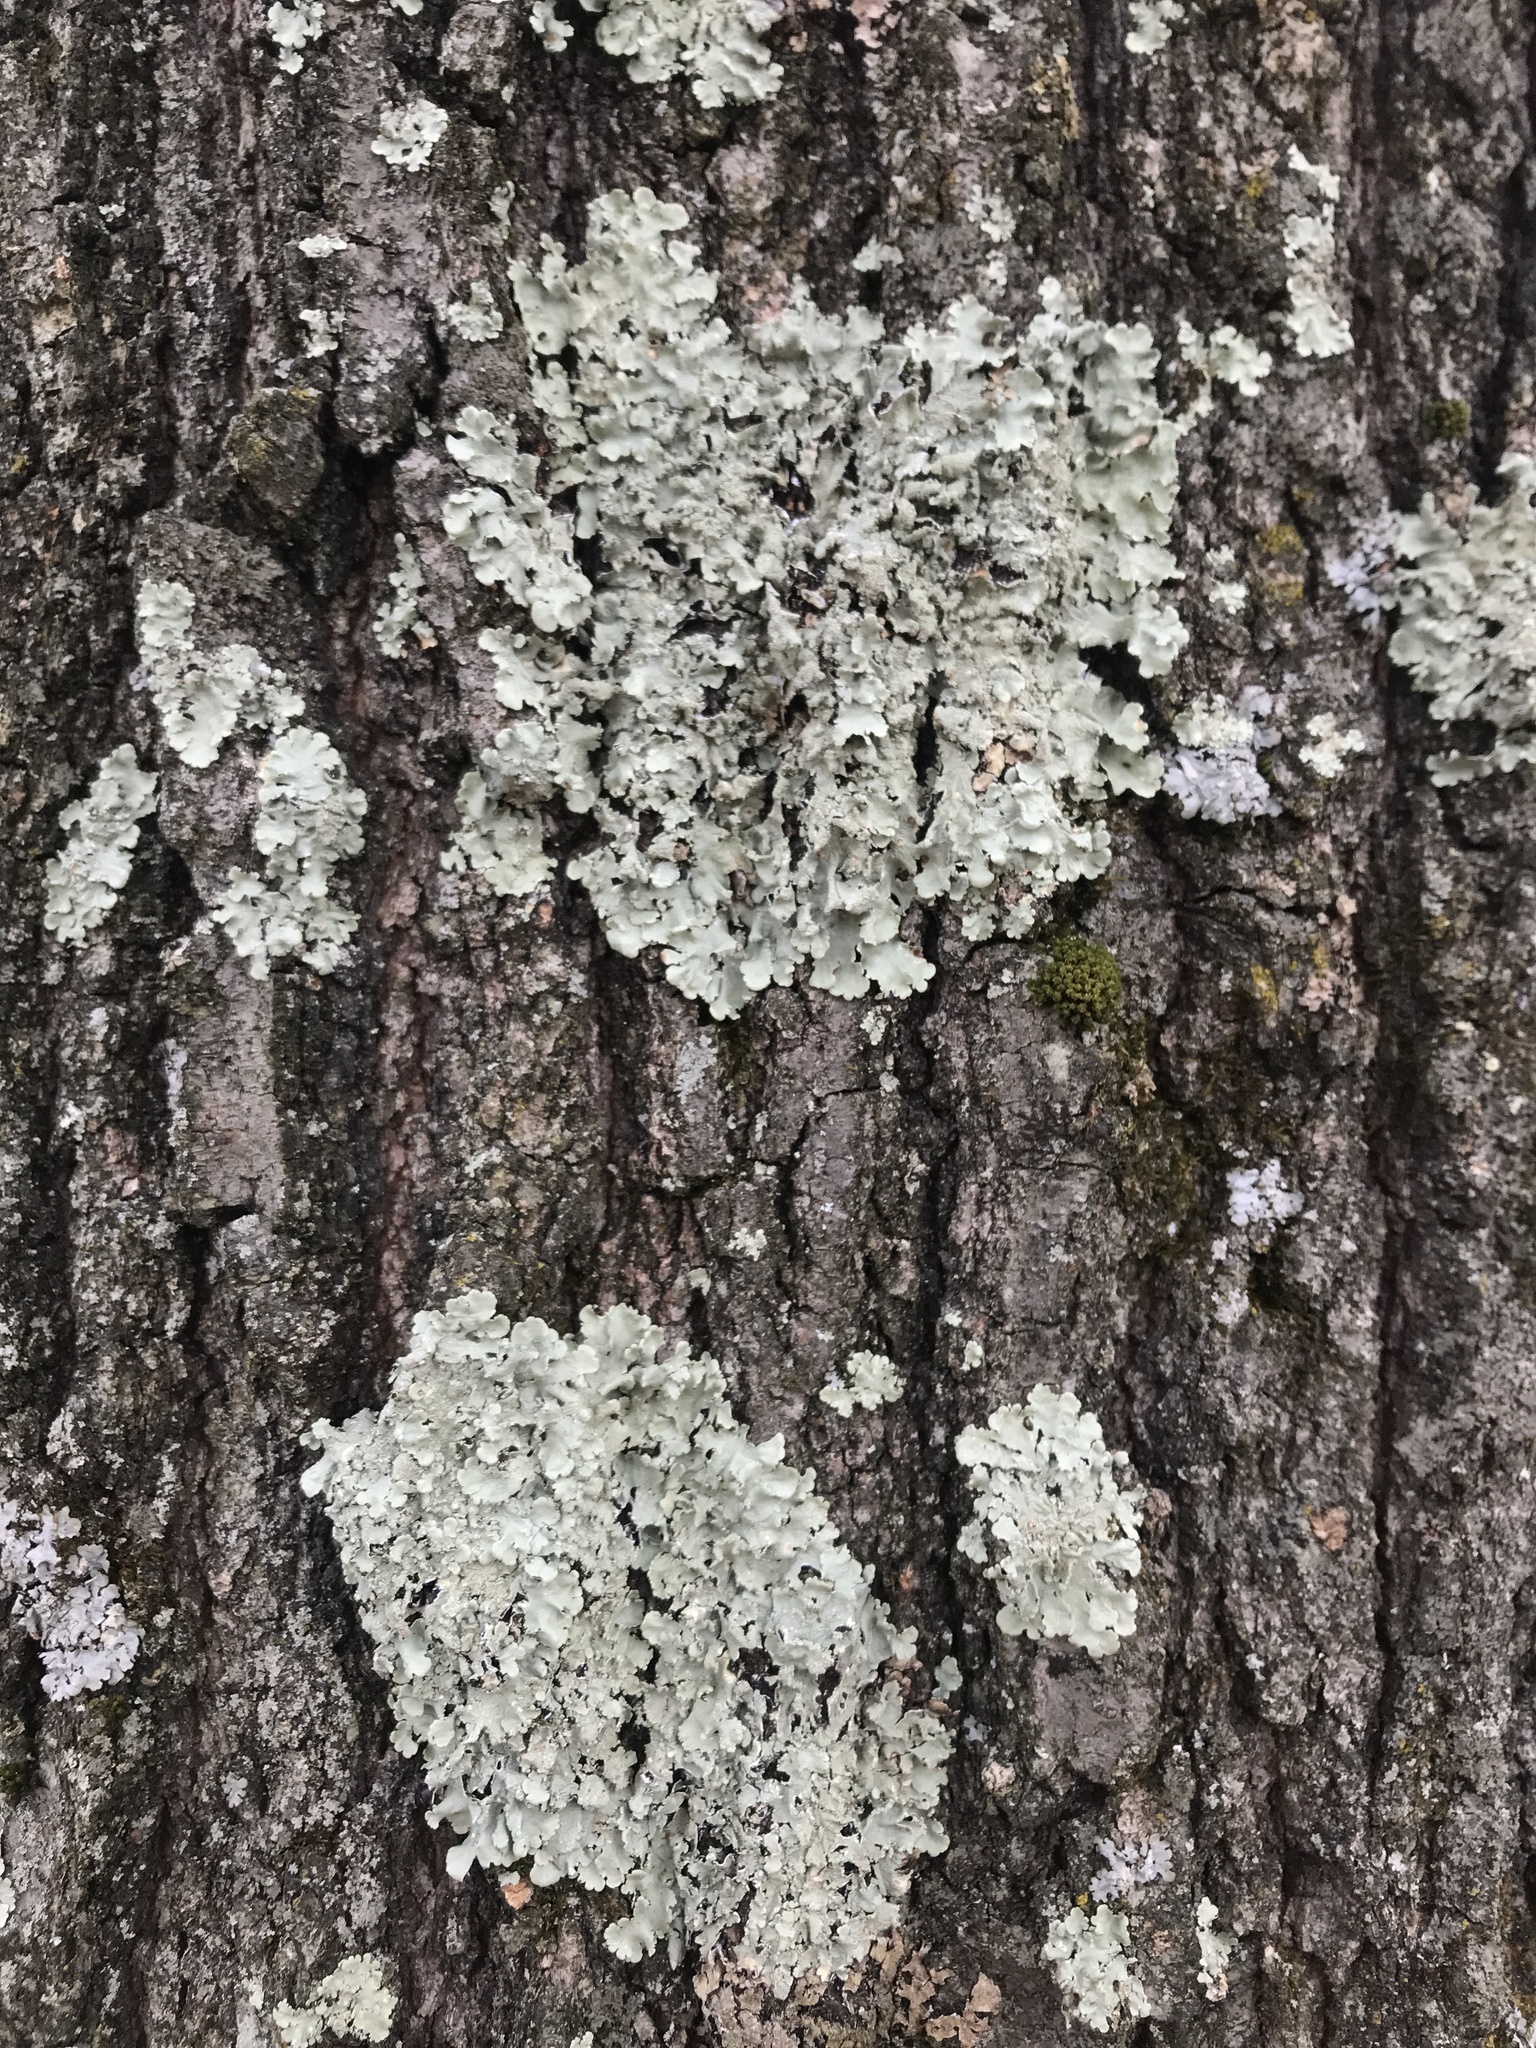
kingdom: Fungi
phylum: Ascomycota
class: Lecanoromycetes
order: Lecanorales
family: Parmeliaceae
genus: Flavoparmelia
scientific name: Flavoparmelia caperata
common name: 40-mile per hour lichen
